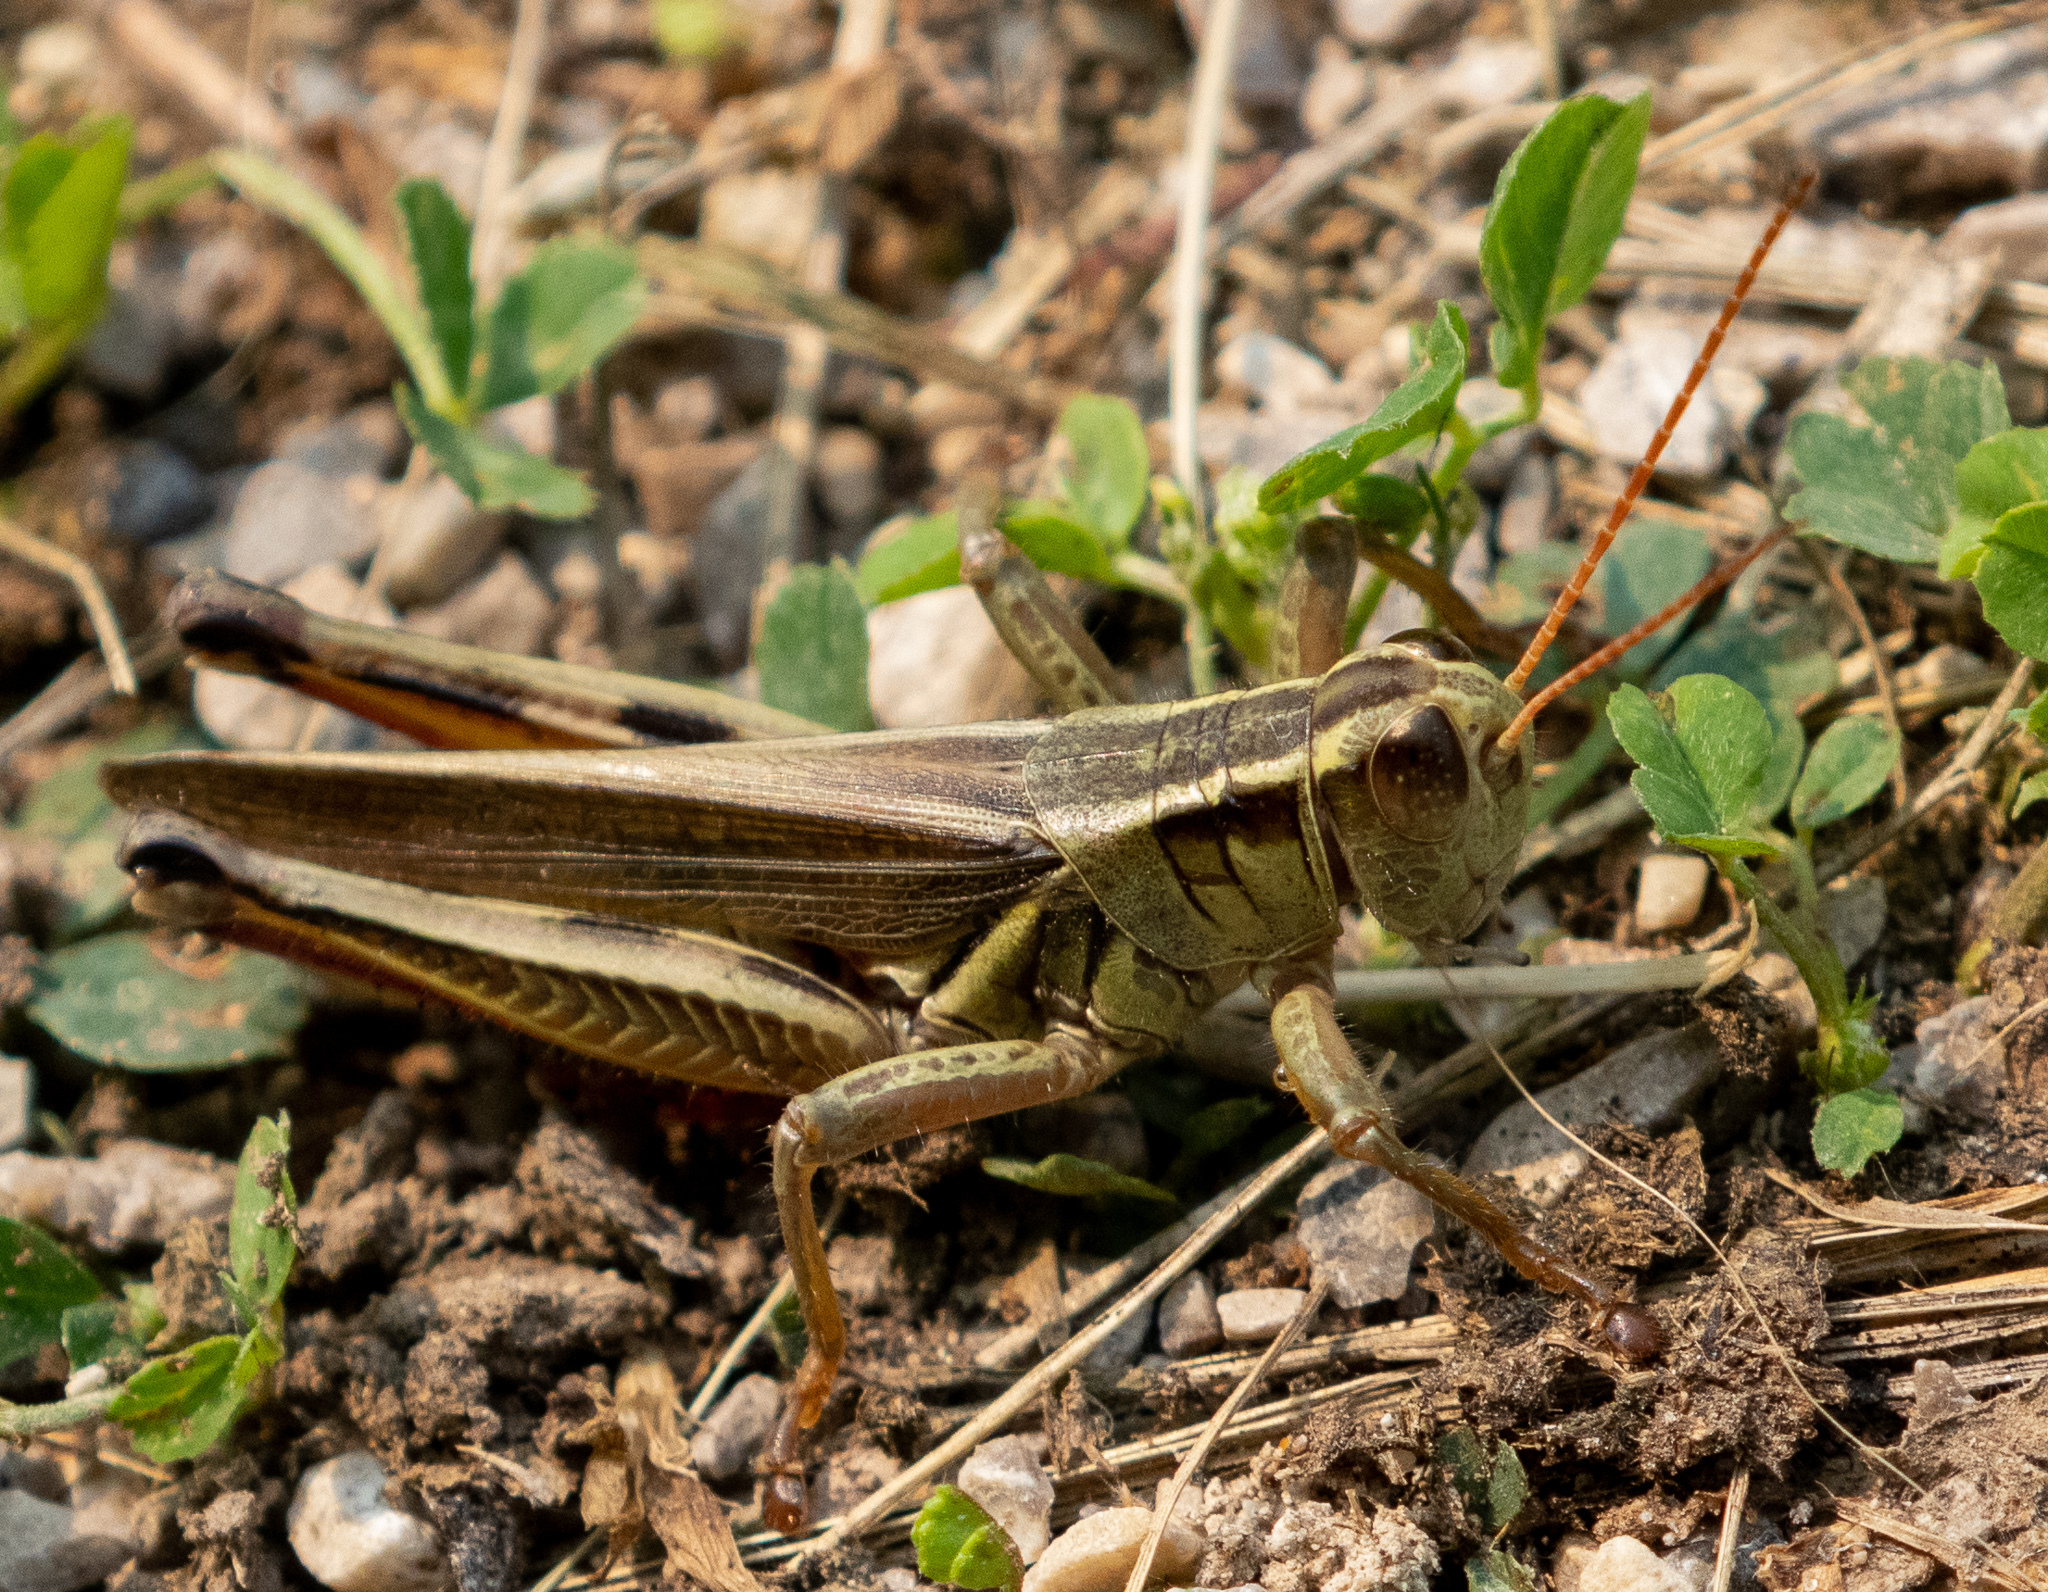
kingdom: Animalia
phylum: Arthropoda
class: Insecta
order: Orthoptera
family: Acrididae
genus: Melanoplus
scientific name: Melanoplus bivittatus
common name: Two-striped grasshopper
